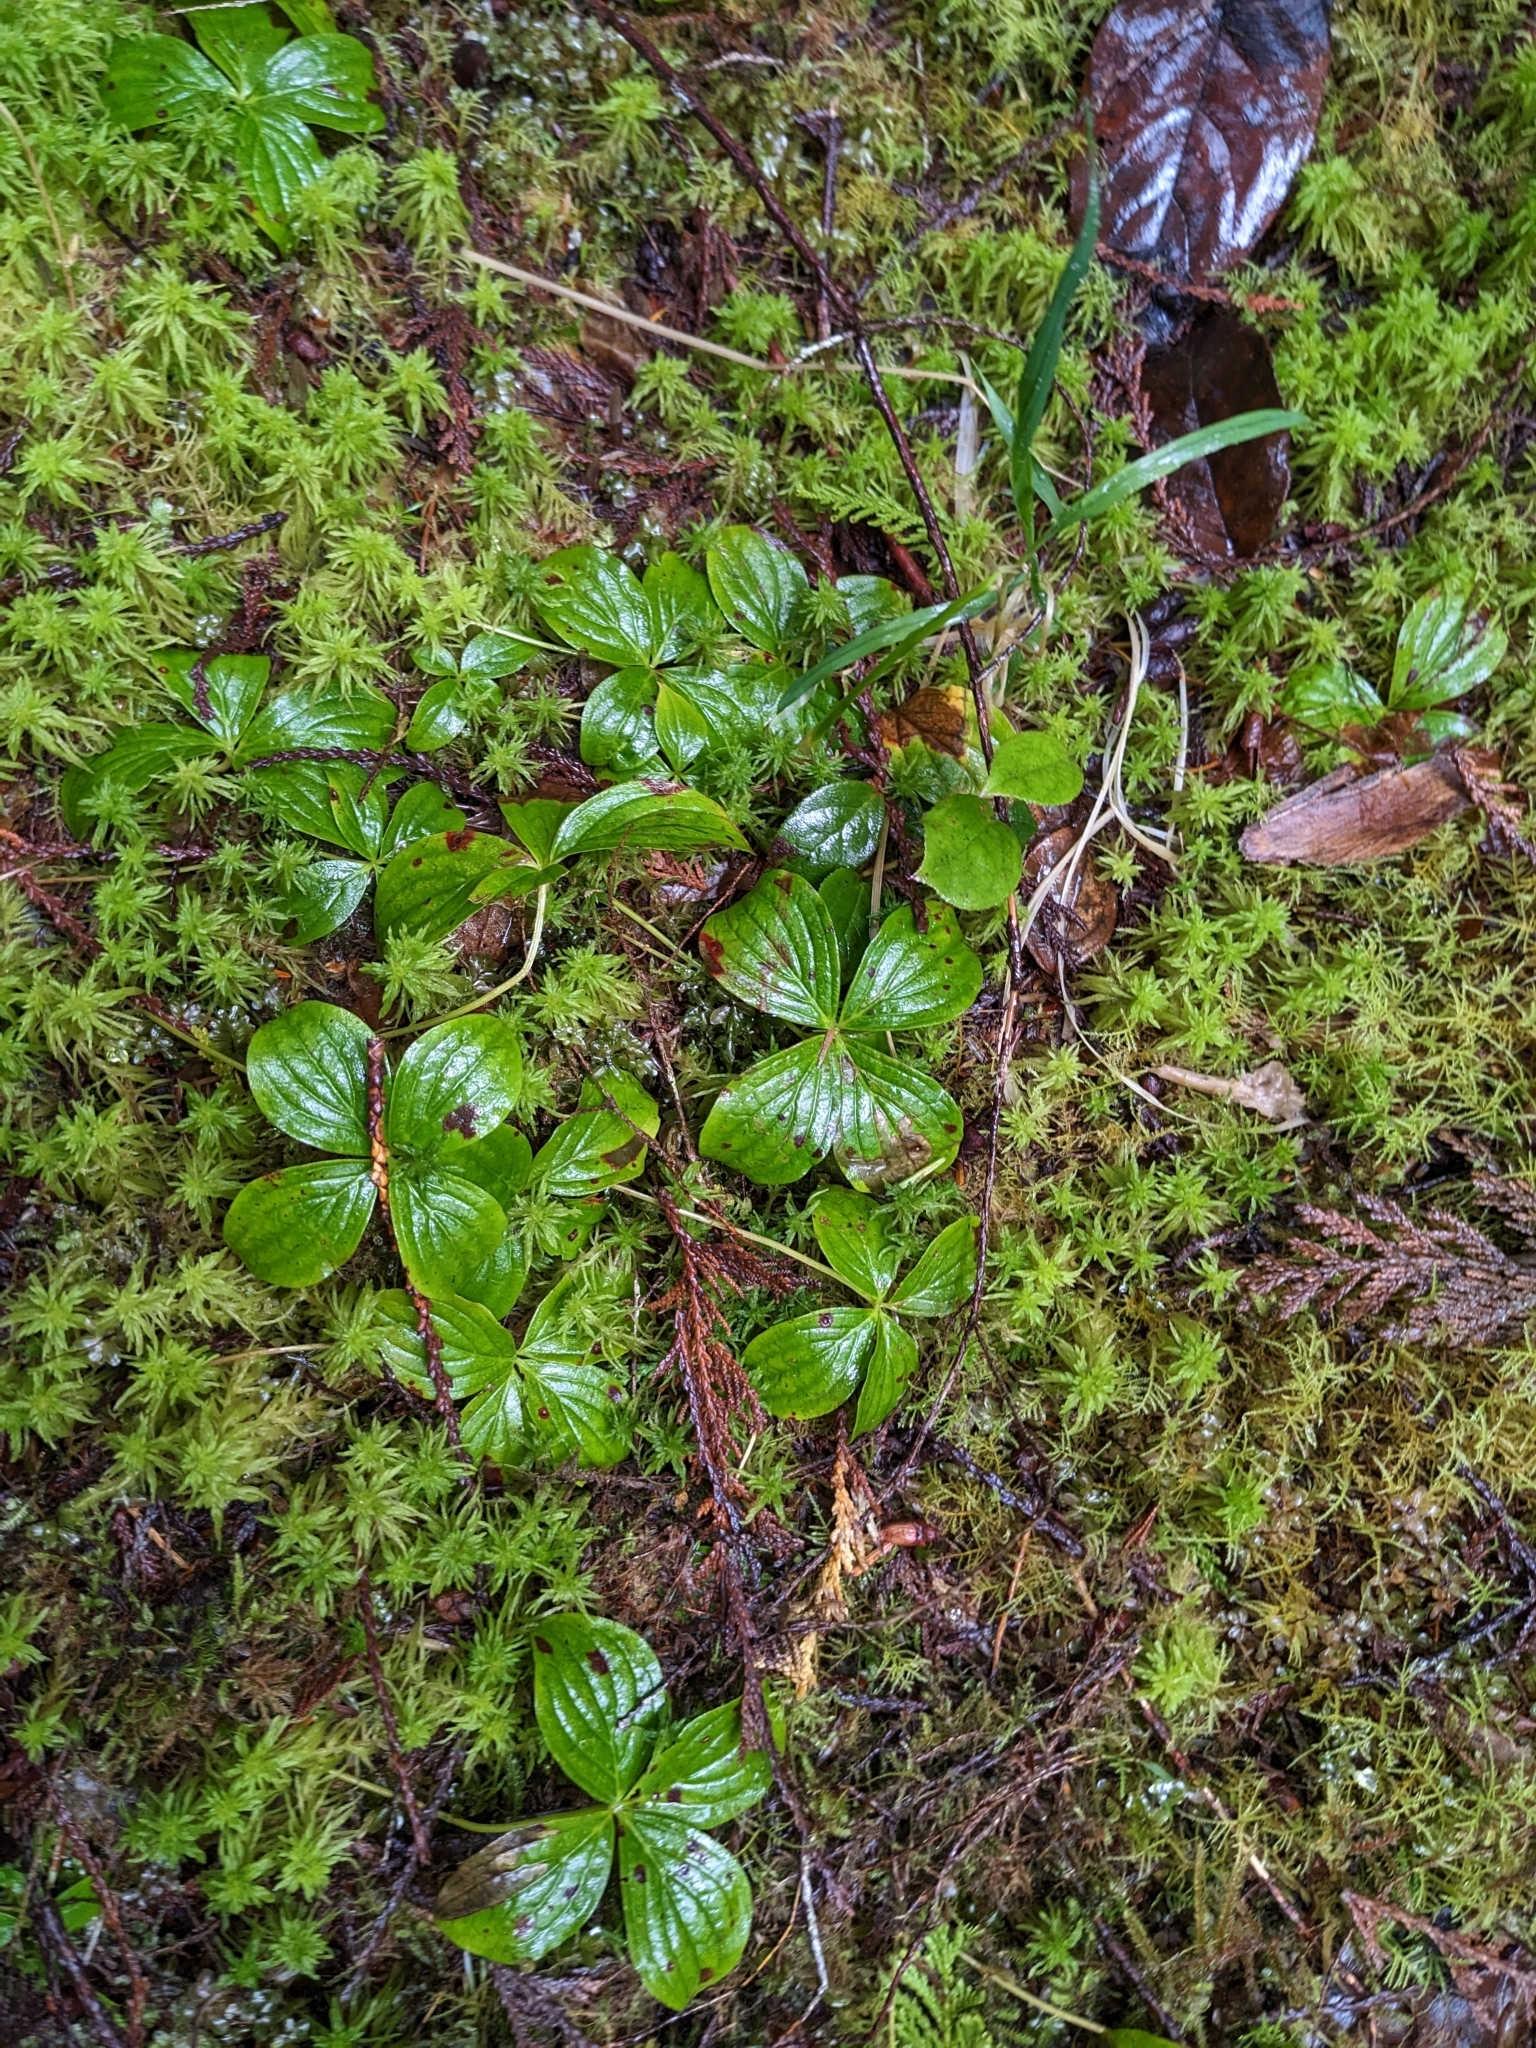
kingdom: Plantae
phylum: Tracheophyta
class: Magnoliopsida
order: Cornales
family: Cornaceae
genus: Cornus
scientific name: Cornus unalaschkensis
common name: Alaska bunchberry
